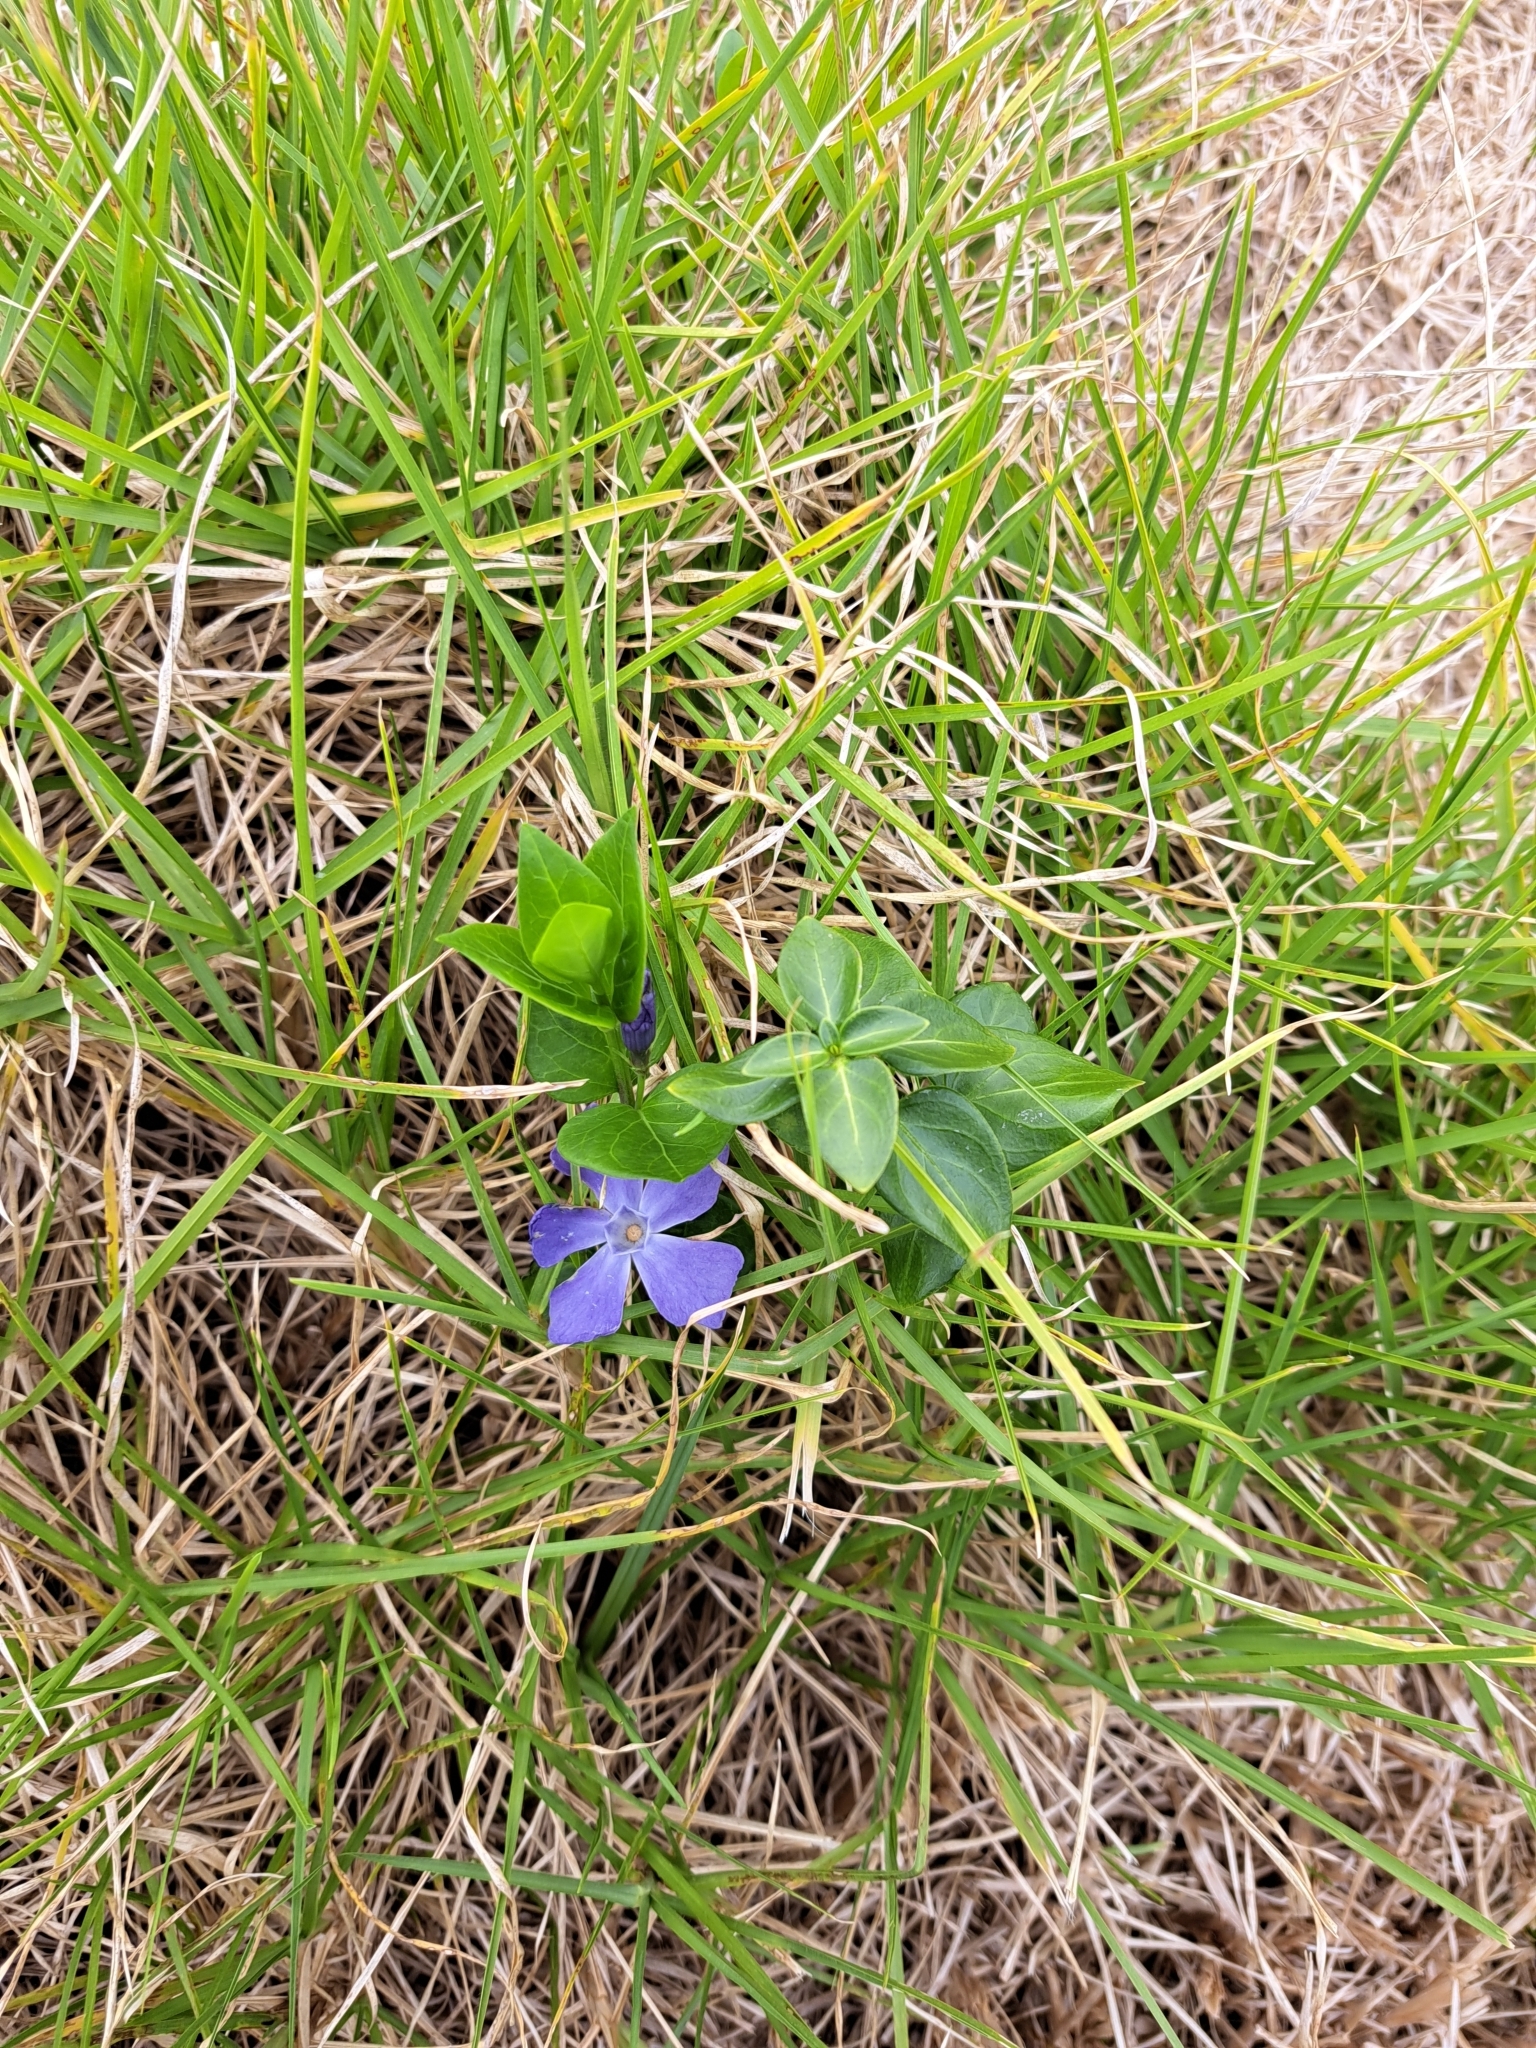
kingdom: Plantae
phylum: Tracheophyta
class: Magnoliopsida
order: Gentianales
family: Apocynaceae
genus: Vinca
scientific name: Vinca major
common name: Greater periwinkle
